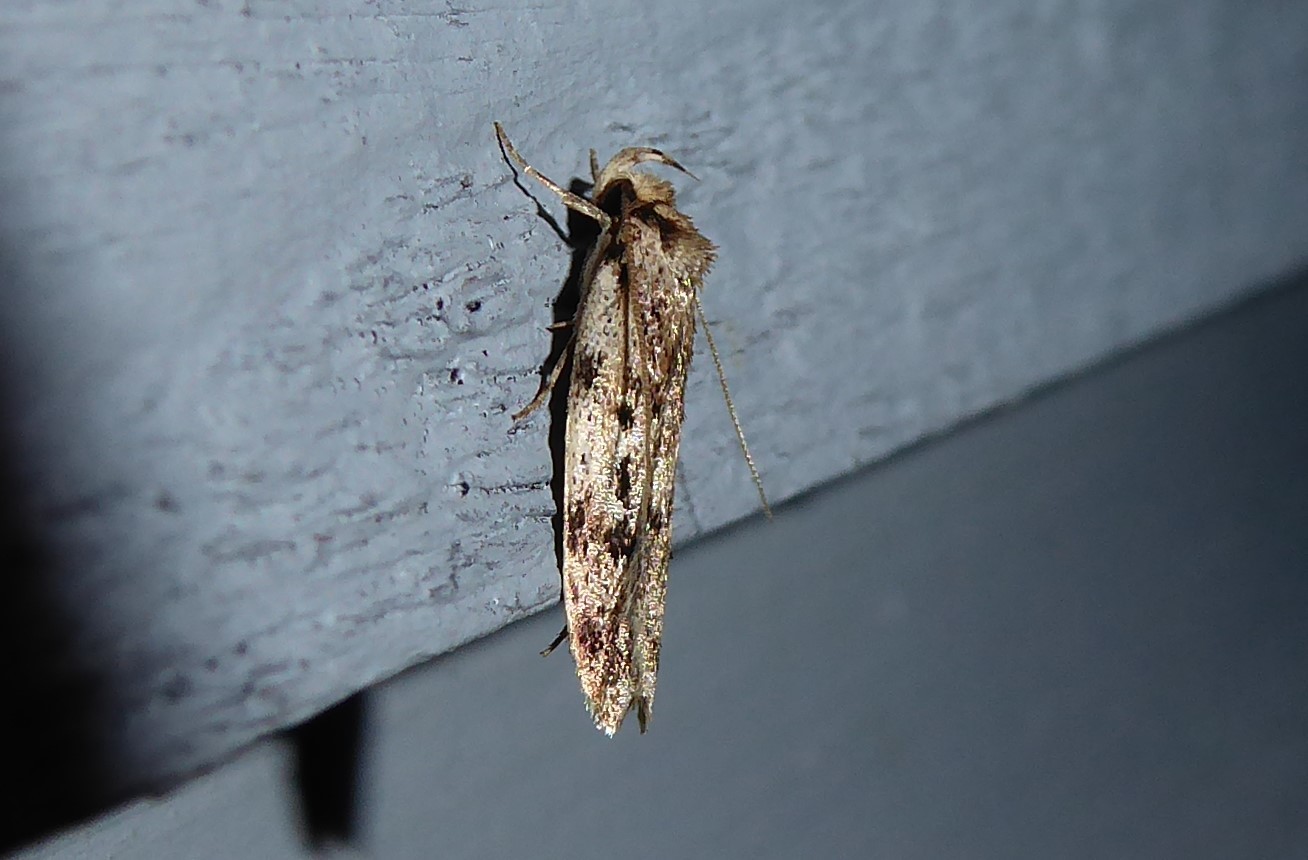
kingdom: Animalia
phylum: Arthropoda
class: Insecta
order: Lepidoptera
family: Oecophoridae
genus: Barea
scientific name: Barea exarcha
